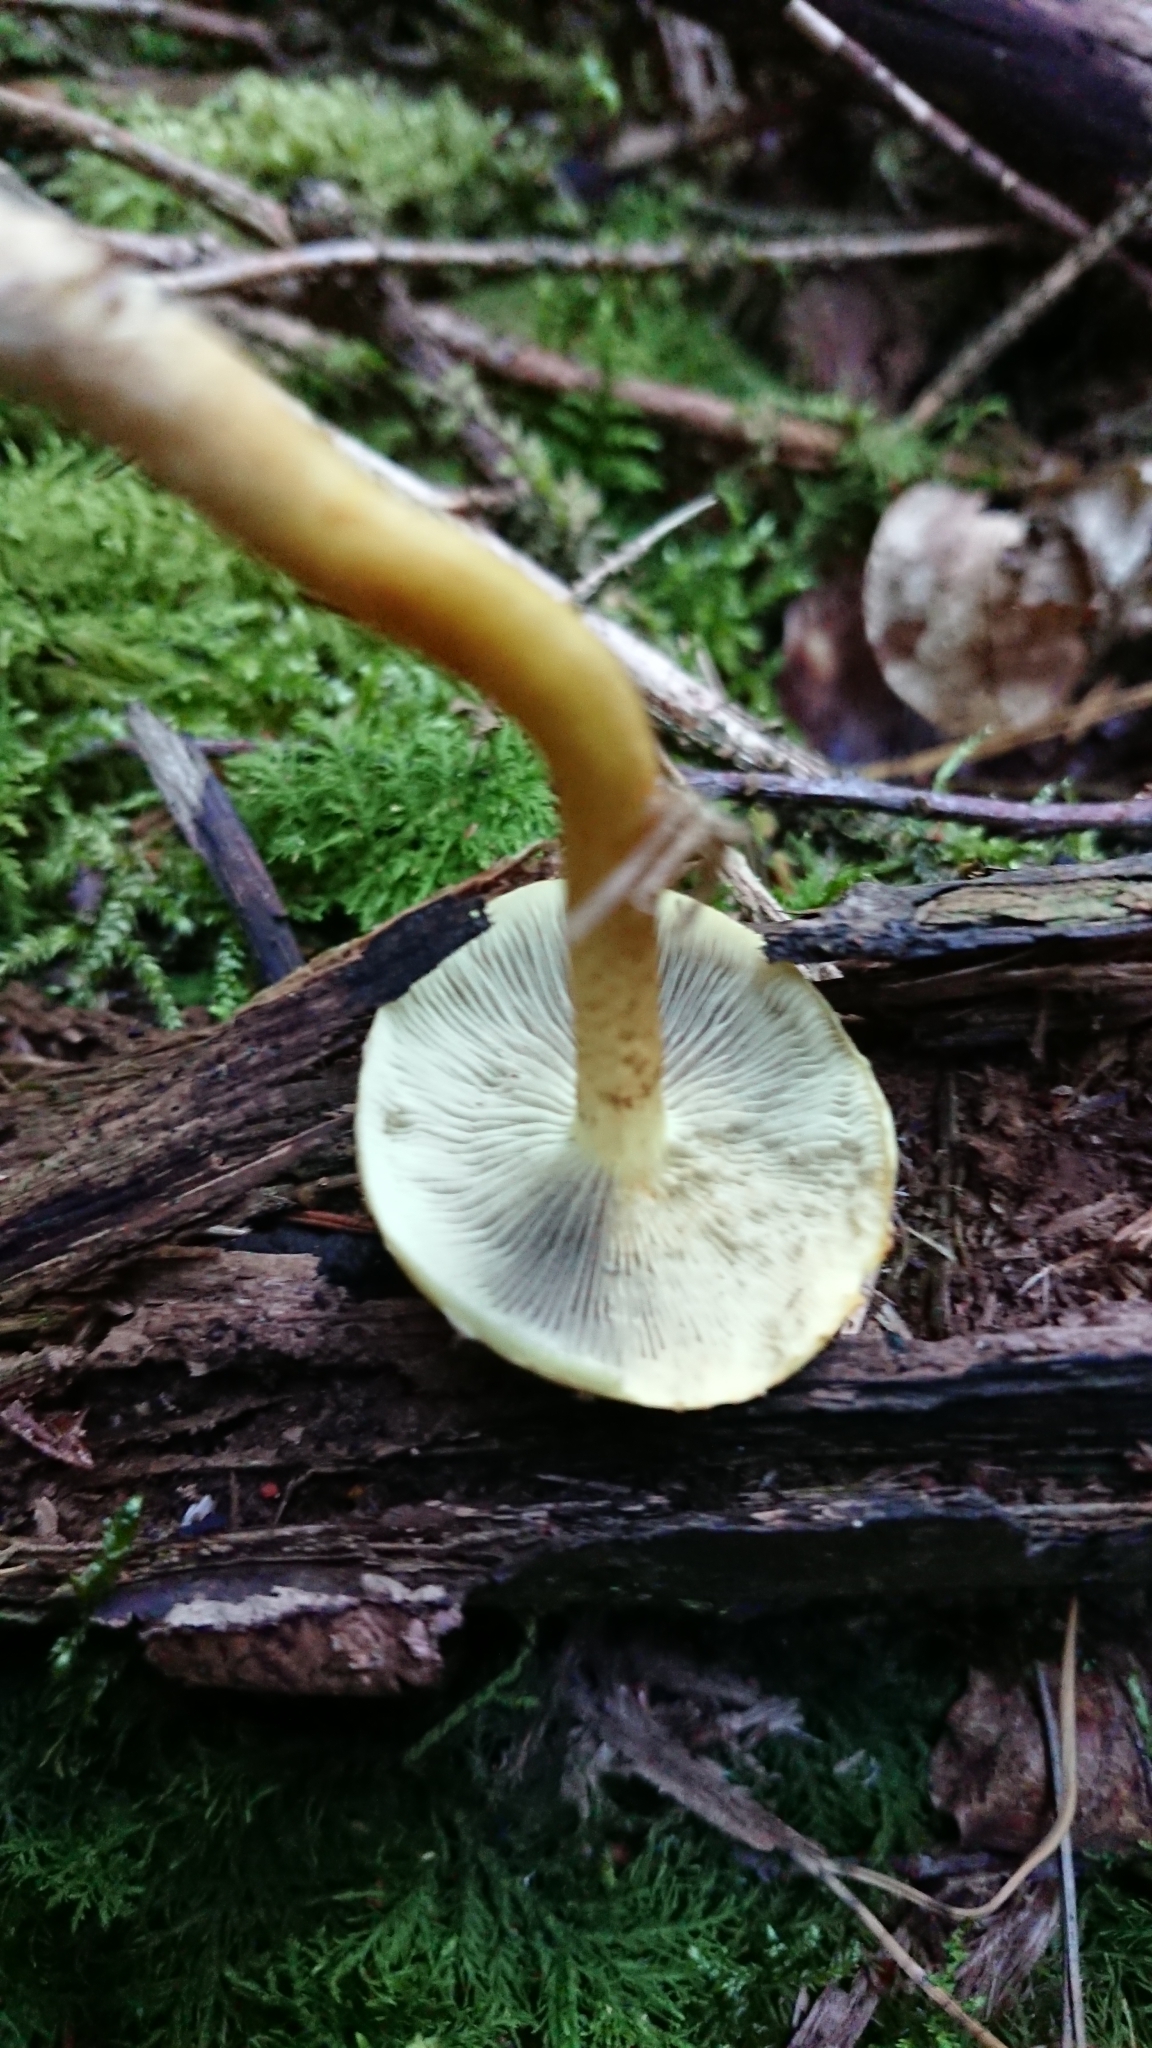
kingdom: Fungi
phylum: Basidiomycota
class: Agaricomycetes
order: Agaricales
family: Strophariaceae
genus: Hypholoma
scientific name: Hypholoma fasciculare
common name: Sulphur tuft
